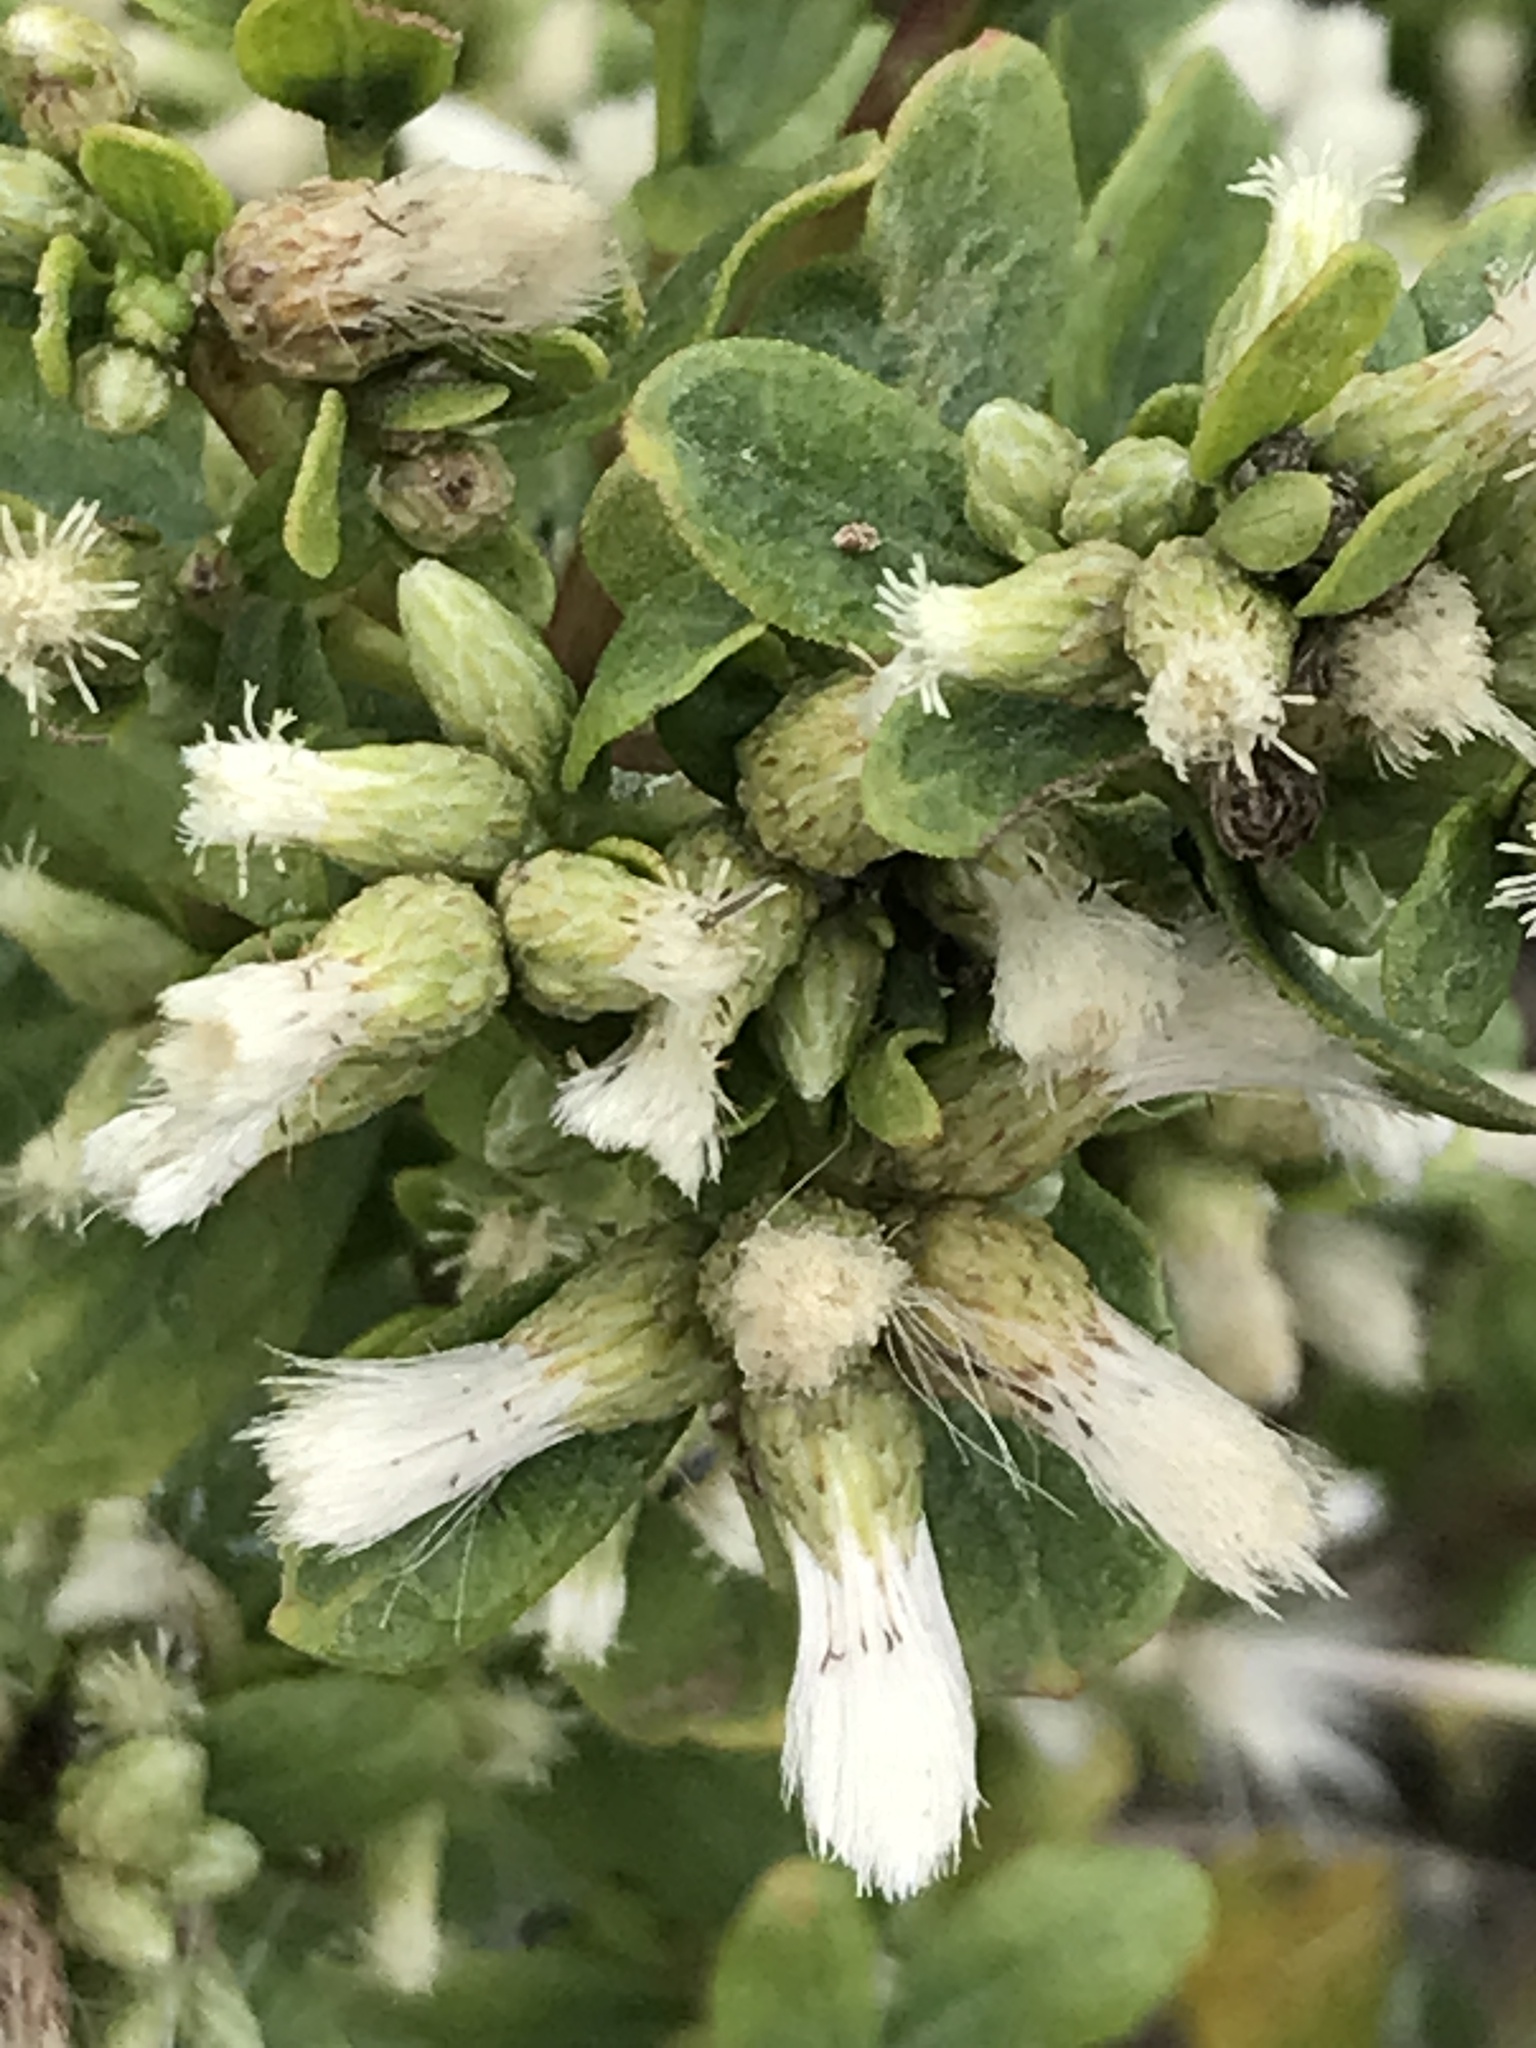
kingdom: Plantae
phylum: Tracheophyta
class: Magnoliopsida
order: Asterales
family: Asteraceae
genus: Baccharis
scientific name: Baccharis pilularis
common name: Coyotebrush
